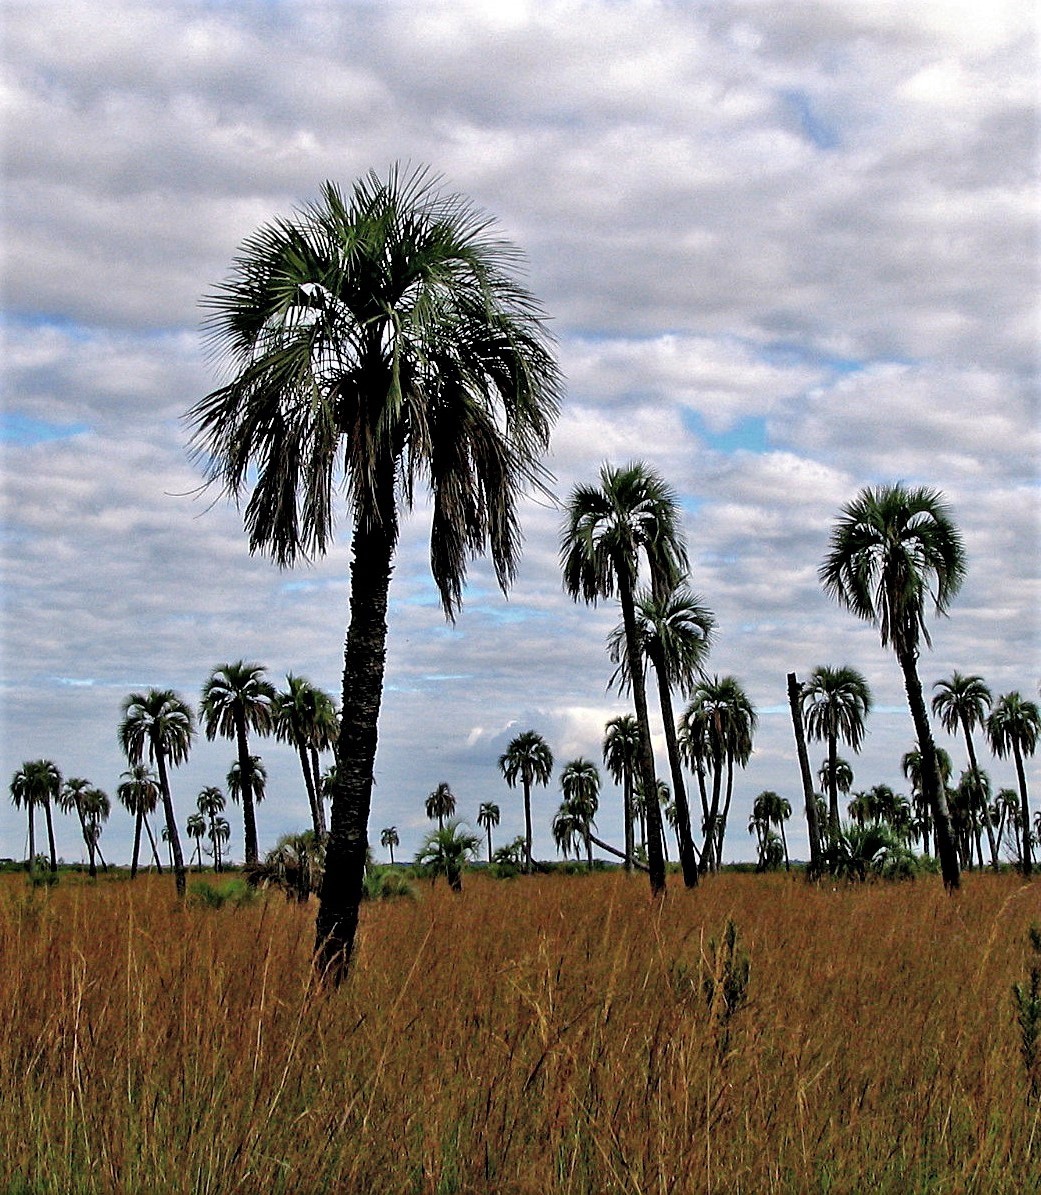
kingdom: Plantae
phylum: Tracheophyta
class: Liliopsida
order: Arecales
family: Arecaceae
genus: Butia
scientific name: Butia yatay
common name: Yatay palm
